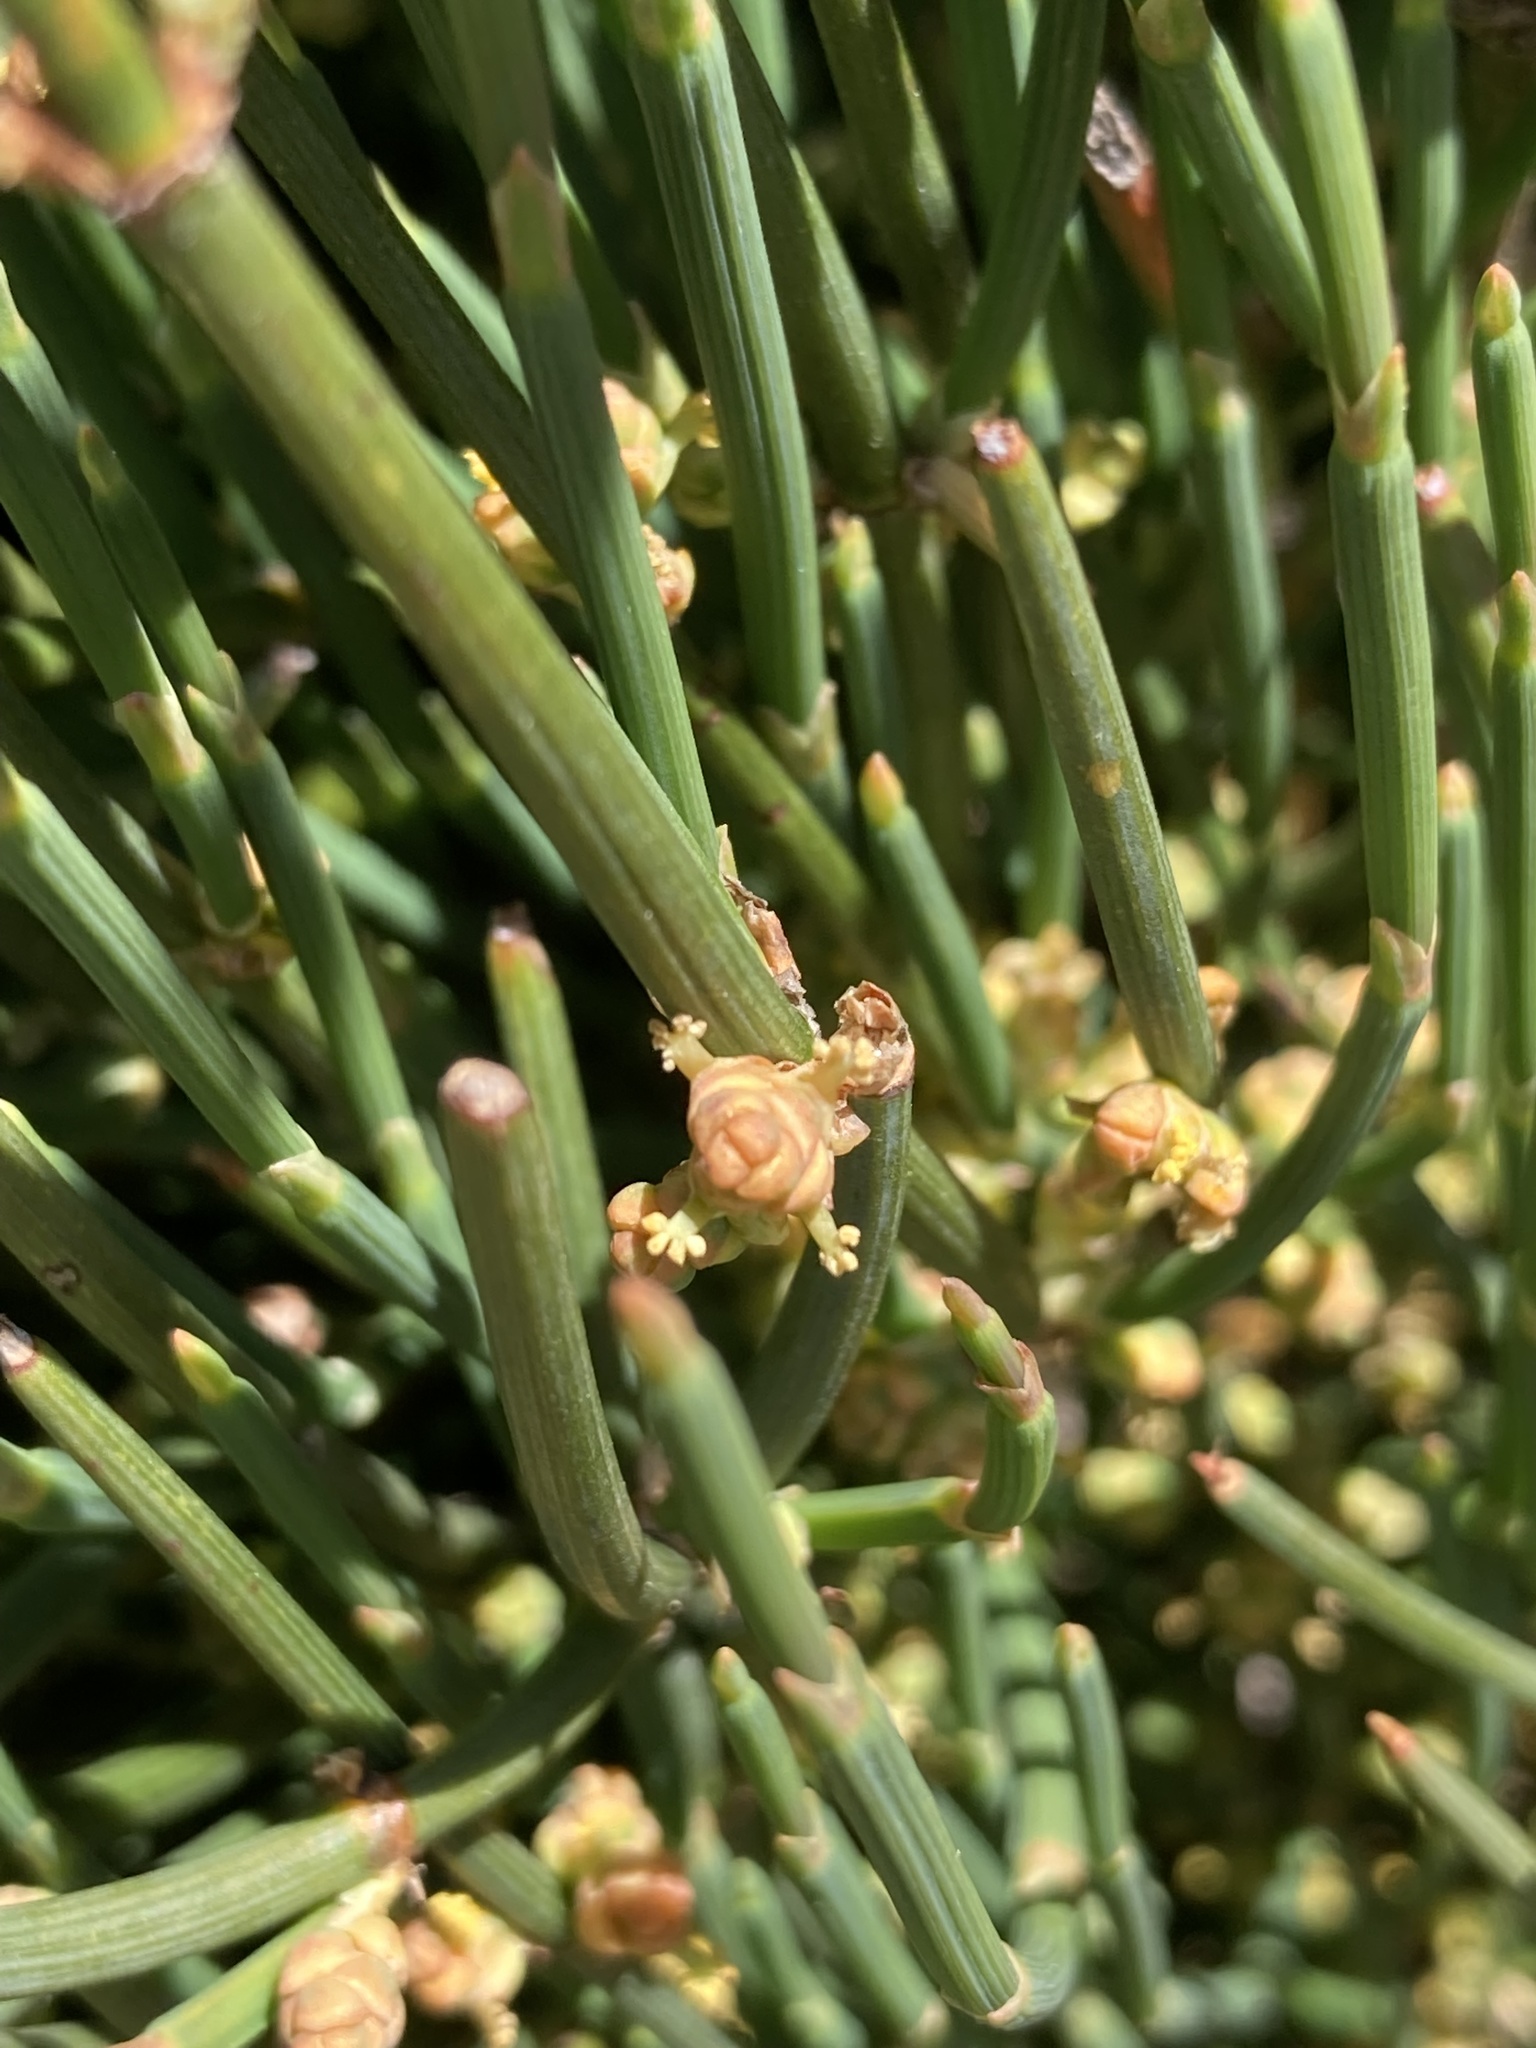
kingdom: Plantae
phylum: Tracheophyta
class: Gnetopsida
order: Ephedrales
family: Ephedraceae
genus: Ephedra
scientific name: Ephedra gerardiana
